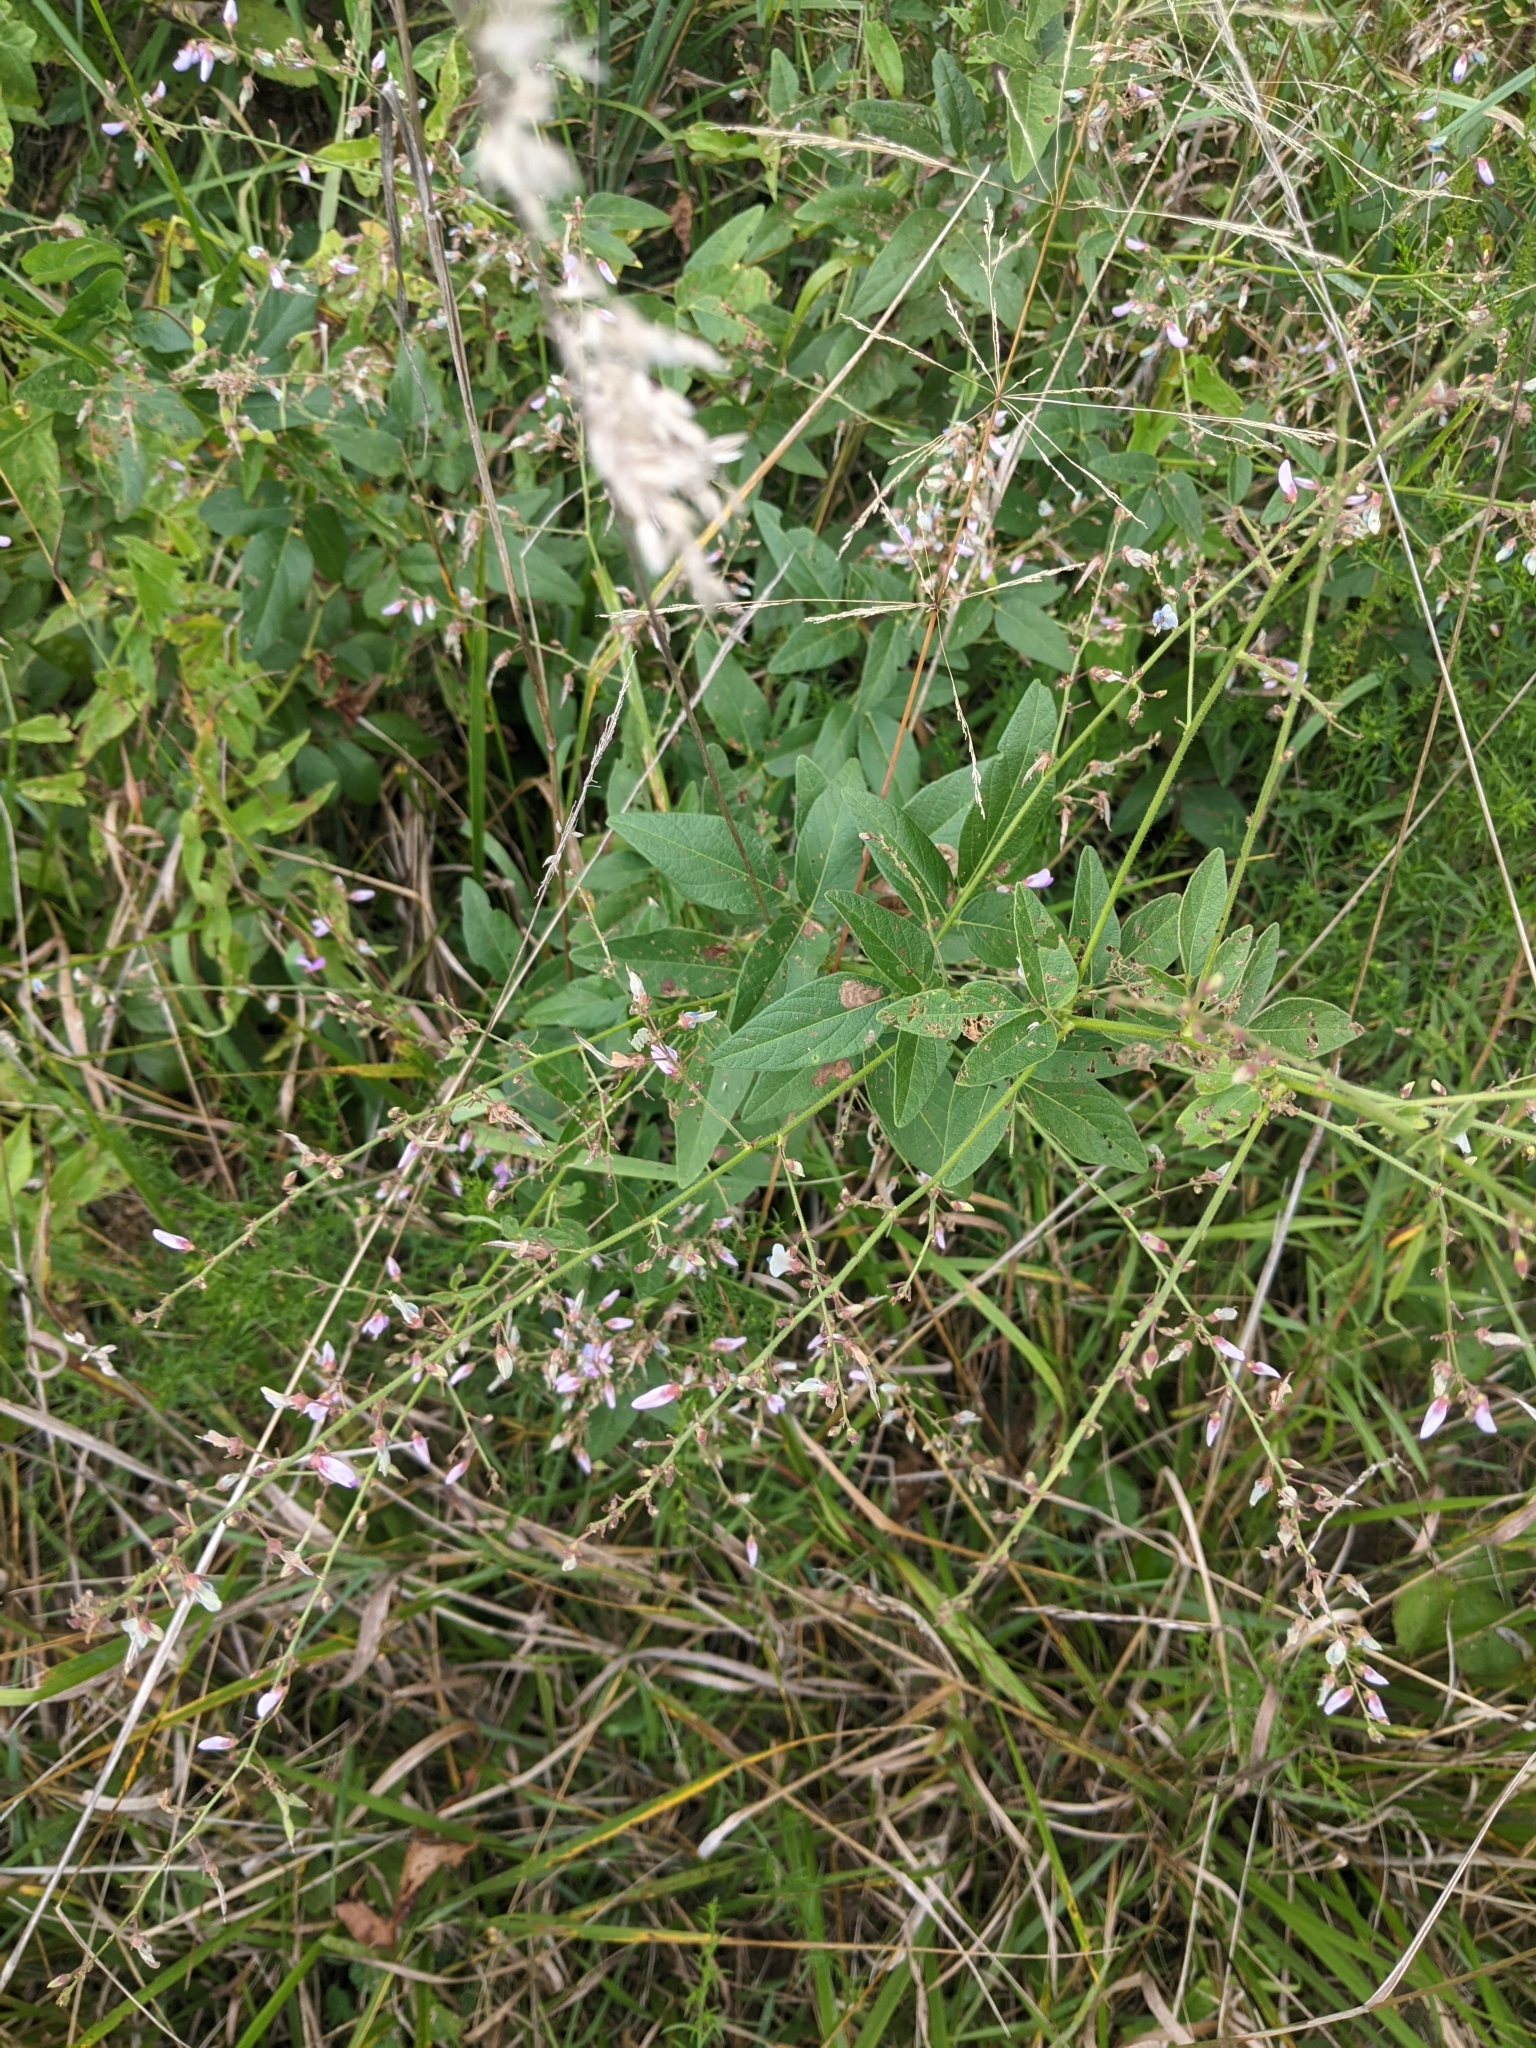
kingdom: Plantae
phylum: Tracheophyta
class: Magnoliopsida
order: Fabales
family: Fabaceae
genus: Desmodium
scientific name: Desmodium glabellum
